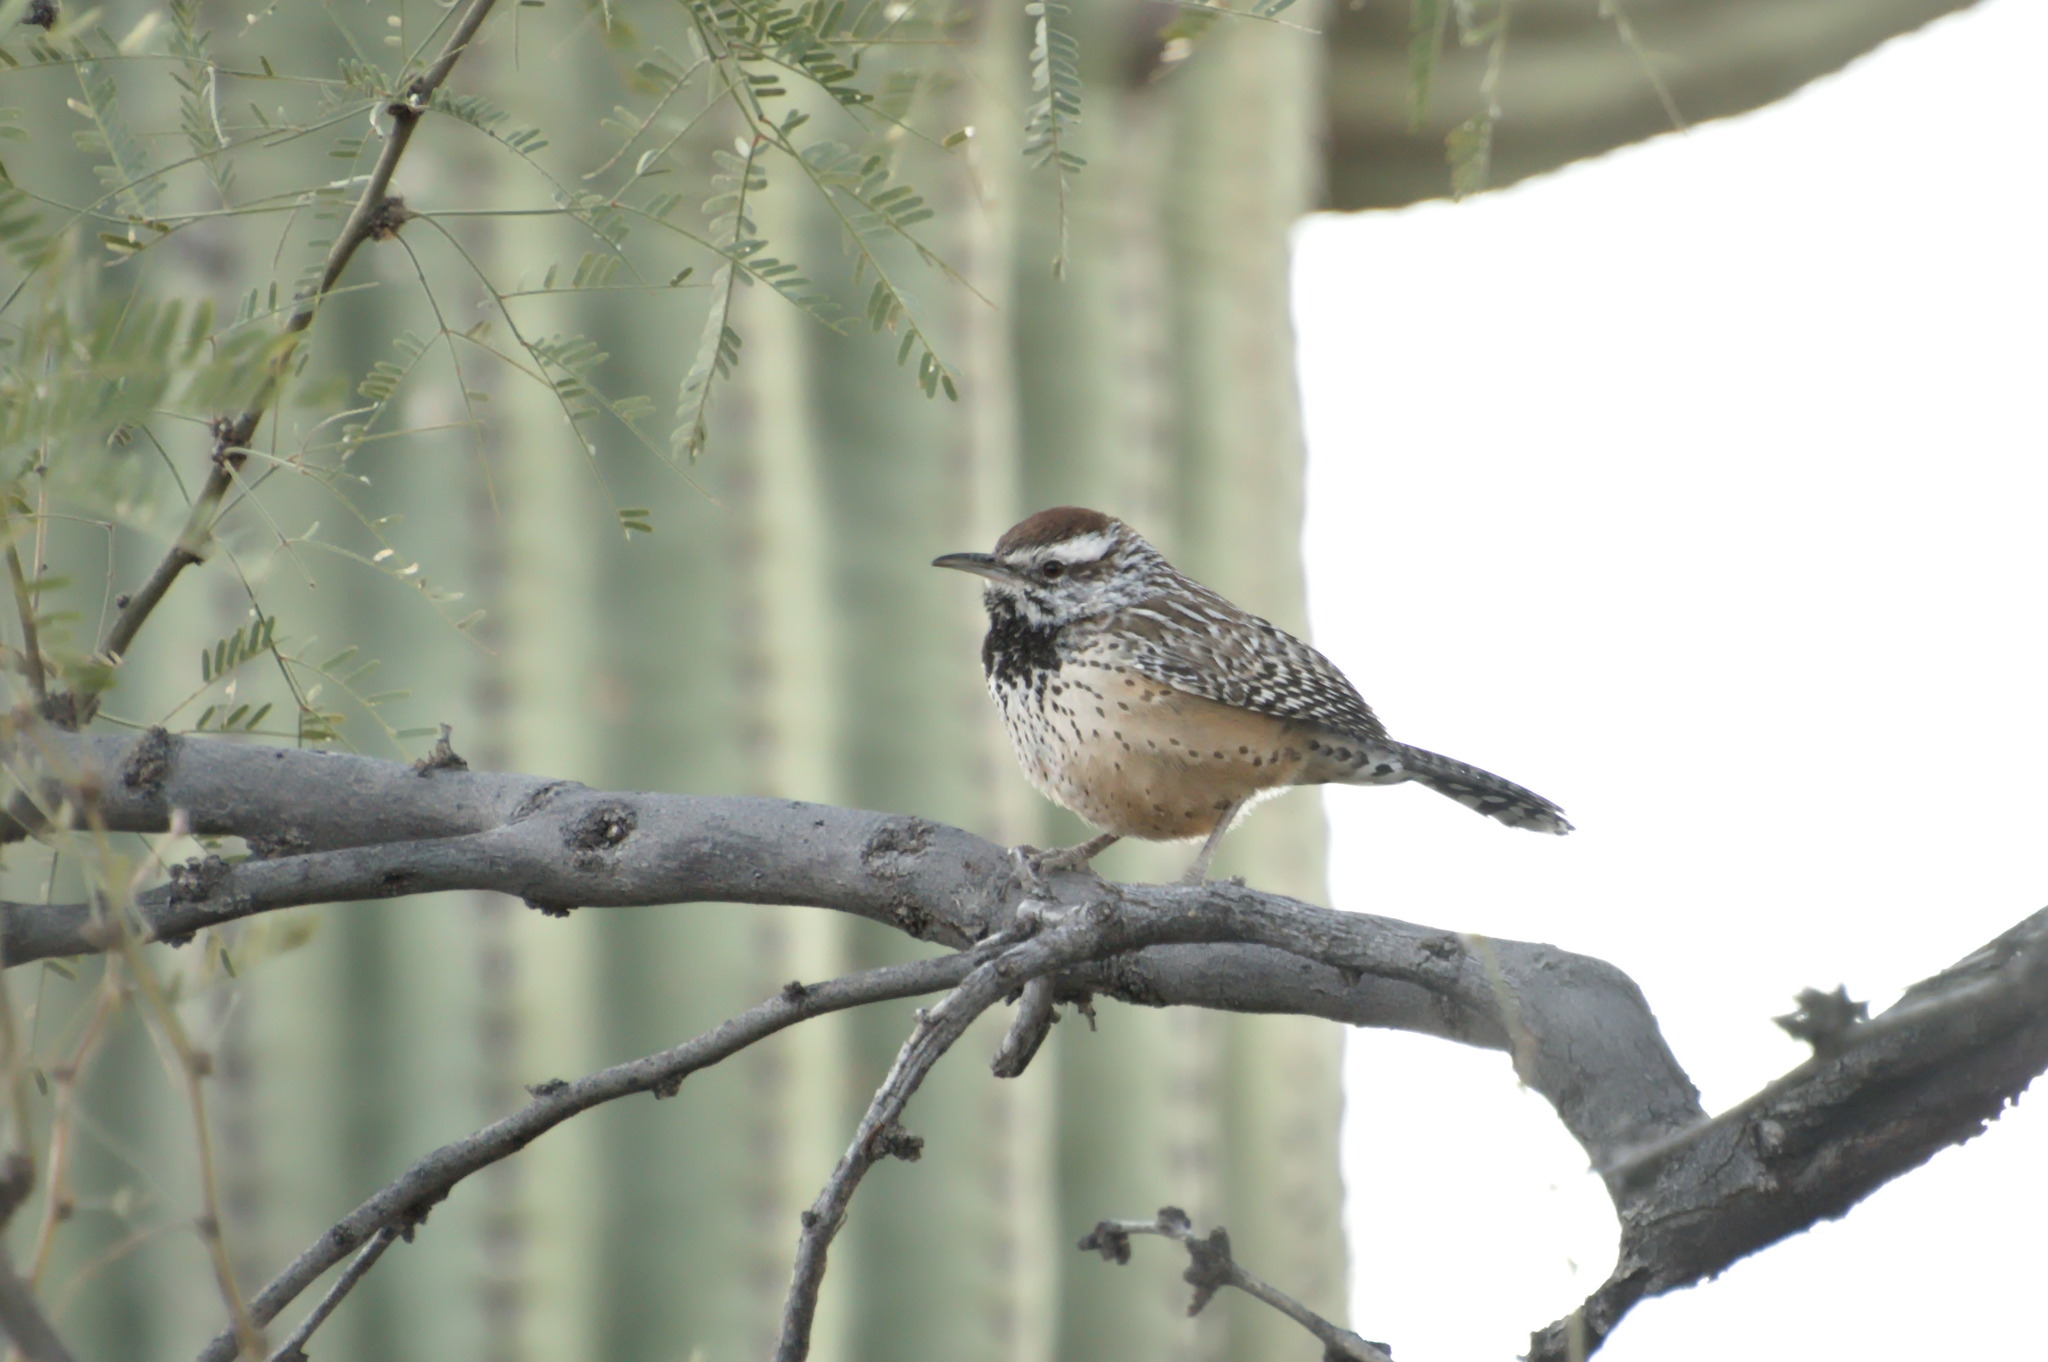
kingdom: Animalia
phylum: Chordata
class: Aves
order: Passeriformes
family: Troglodytidae
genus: Campylorhynchus
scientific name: Campylorhynchus brunneicapillus
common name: Cactus wren
